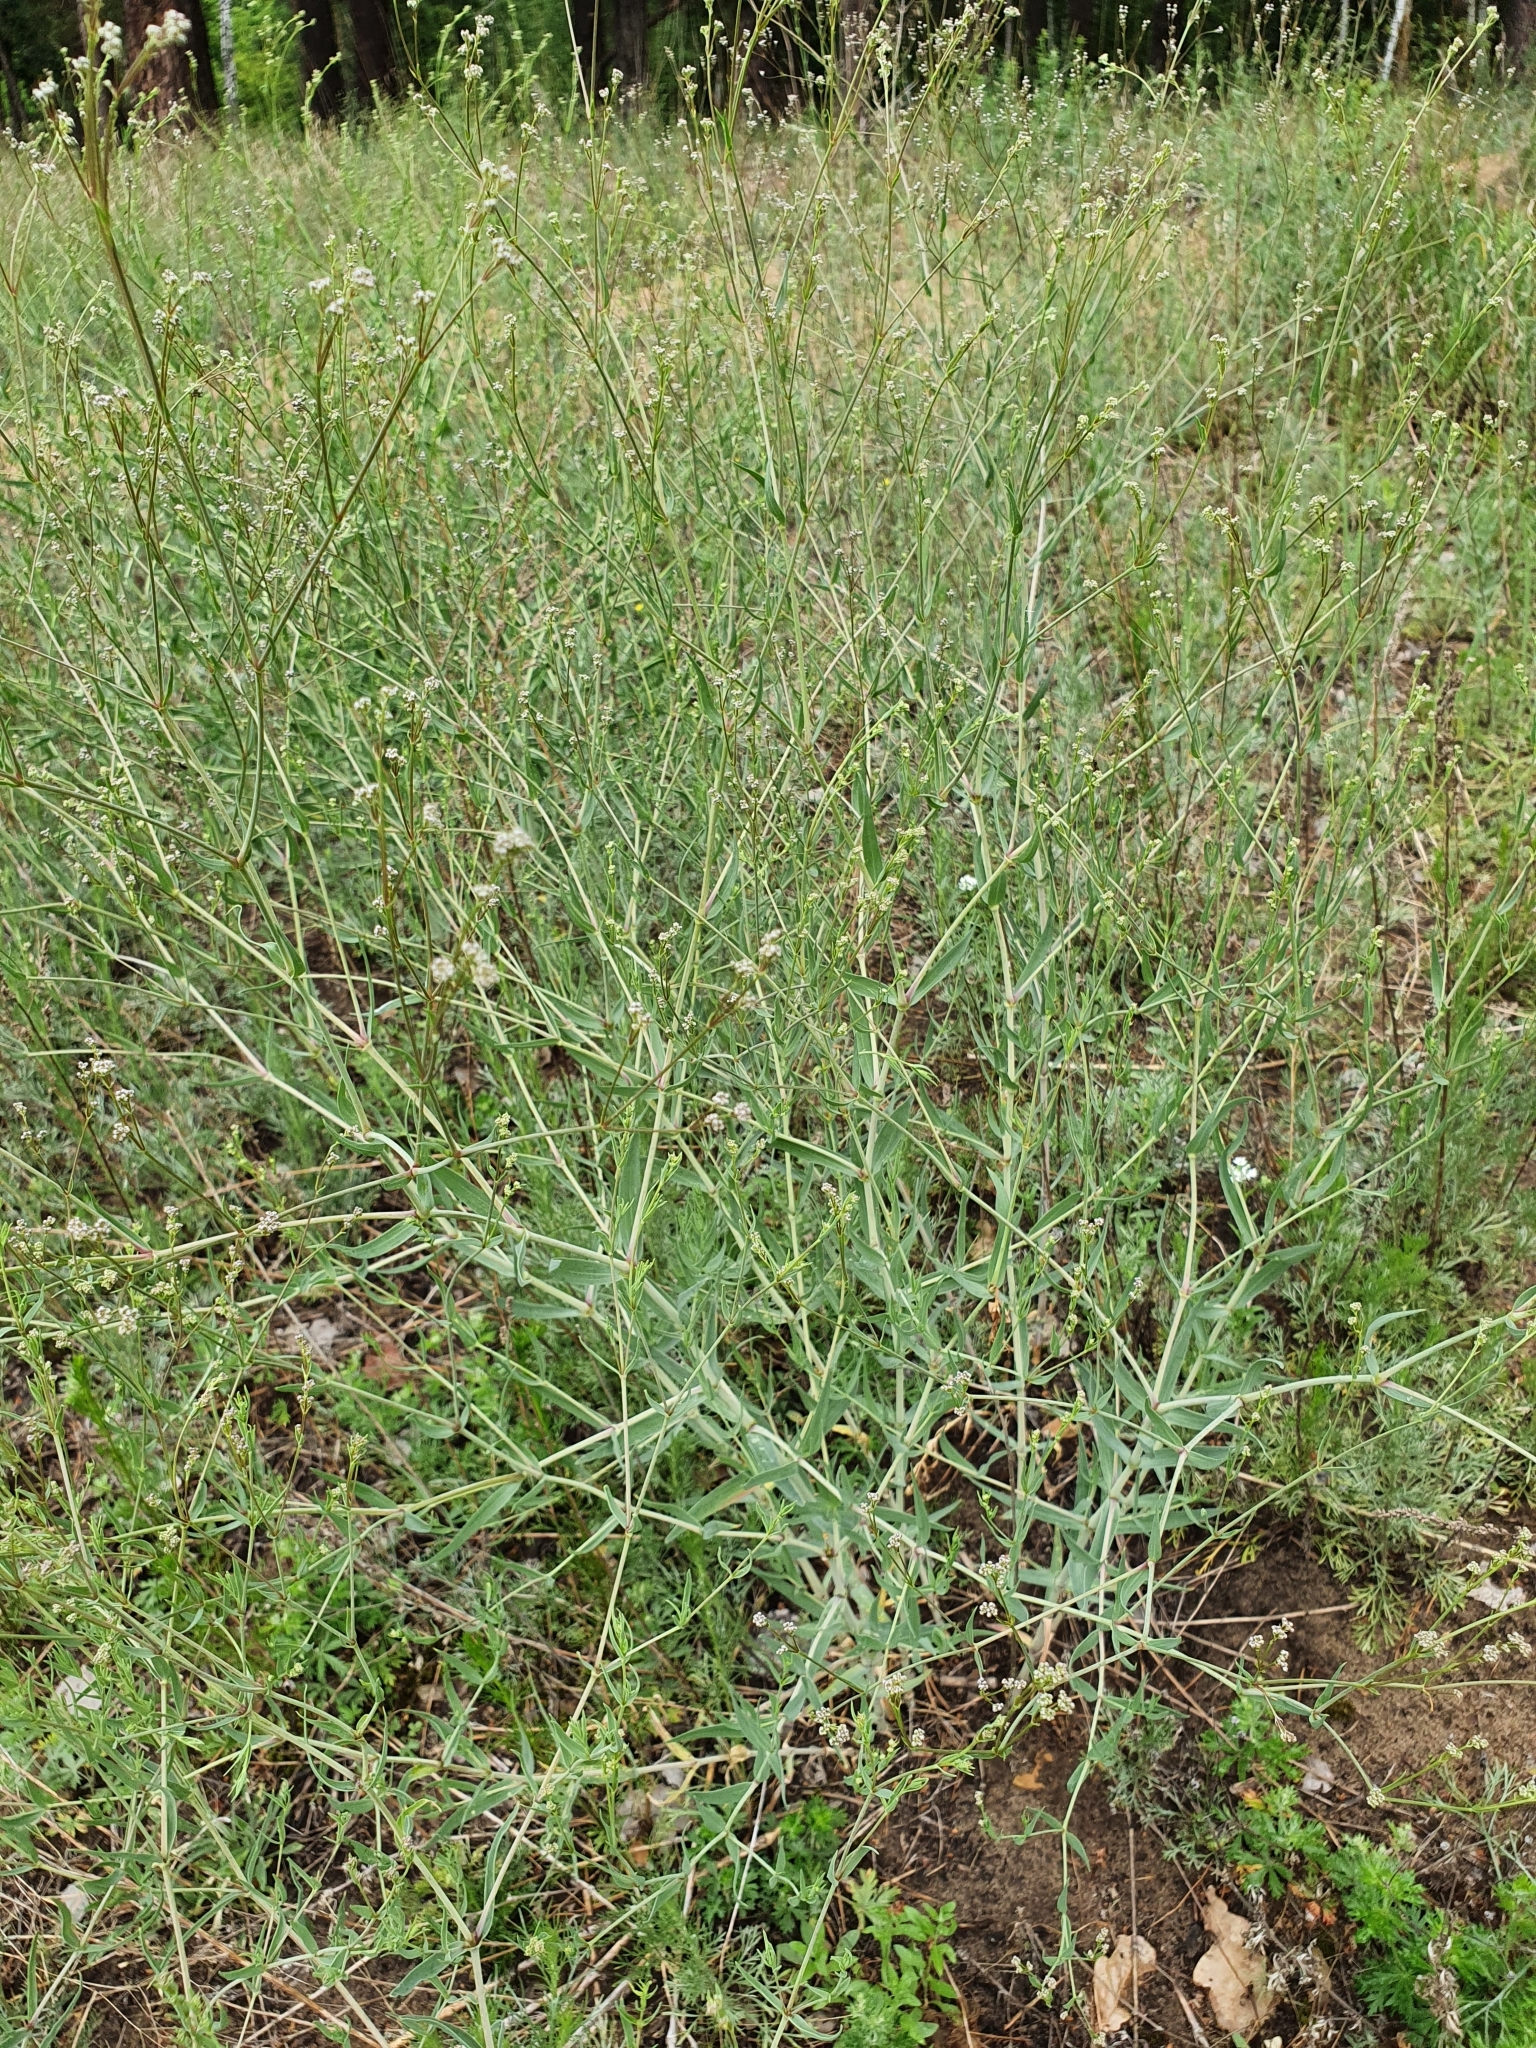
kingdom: Plantae
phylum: Tracheophyta
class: Magnoliopsida
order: Caryophyllales
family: Caryophyllaceae
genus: Gypsophila
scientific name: Gypsophila paniculata
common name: Baby's-breath
